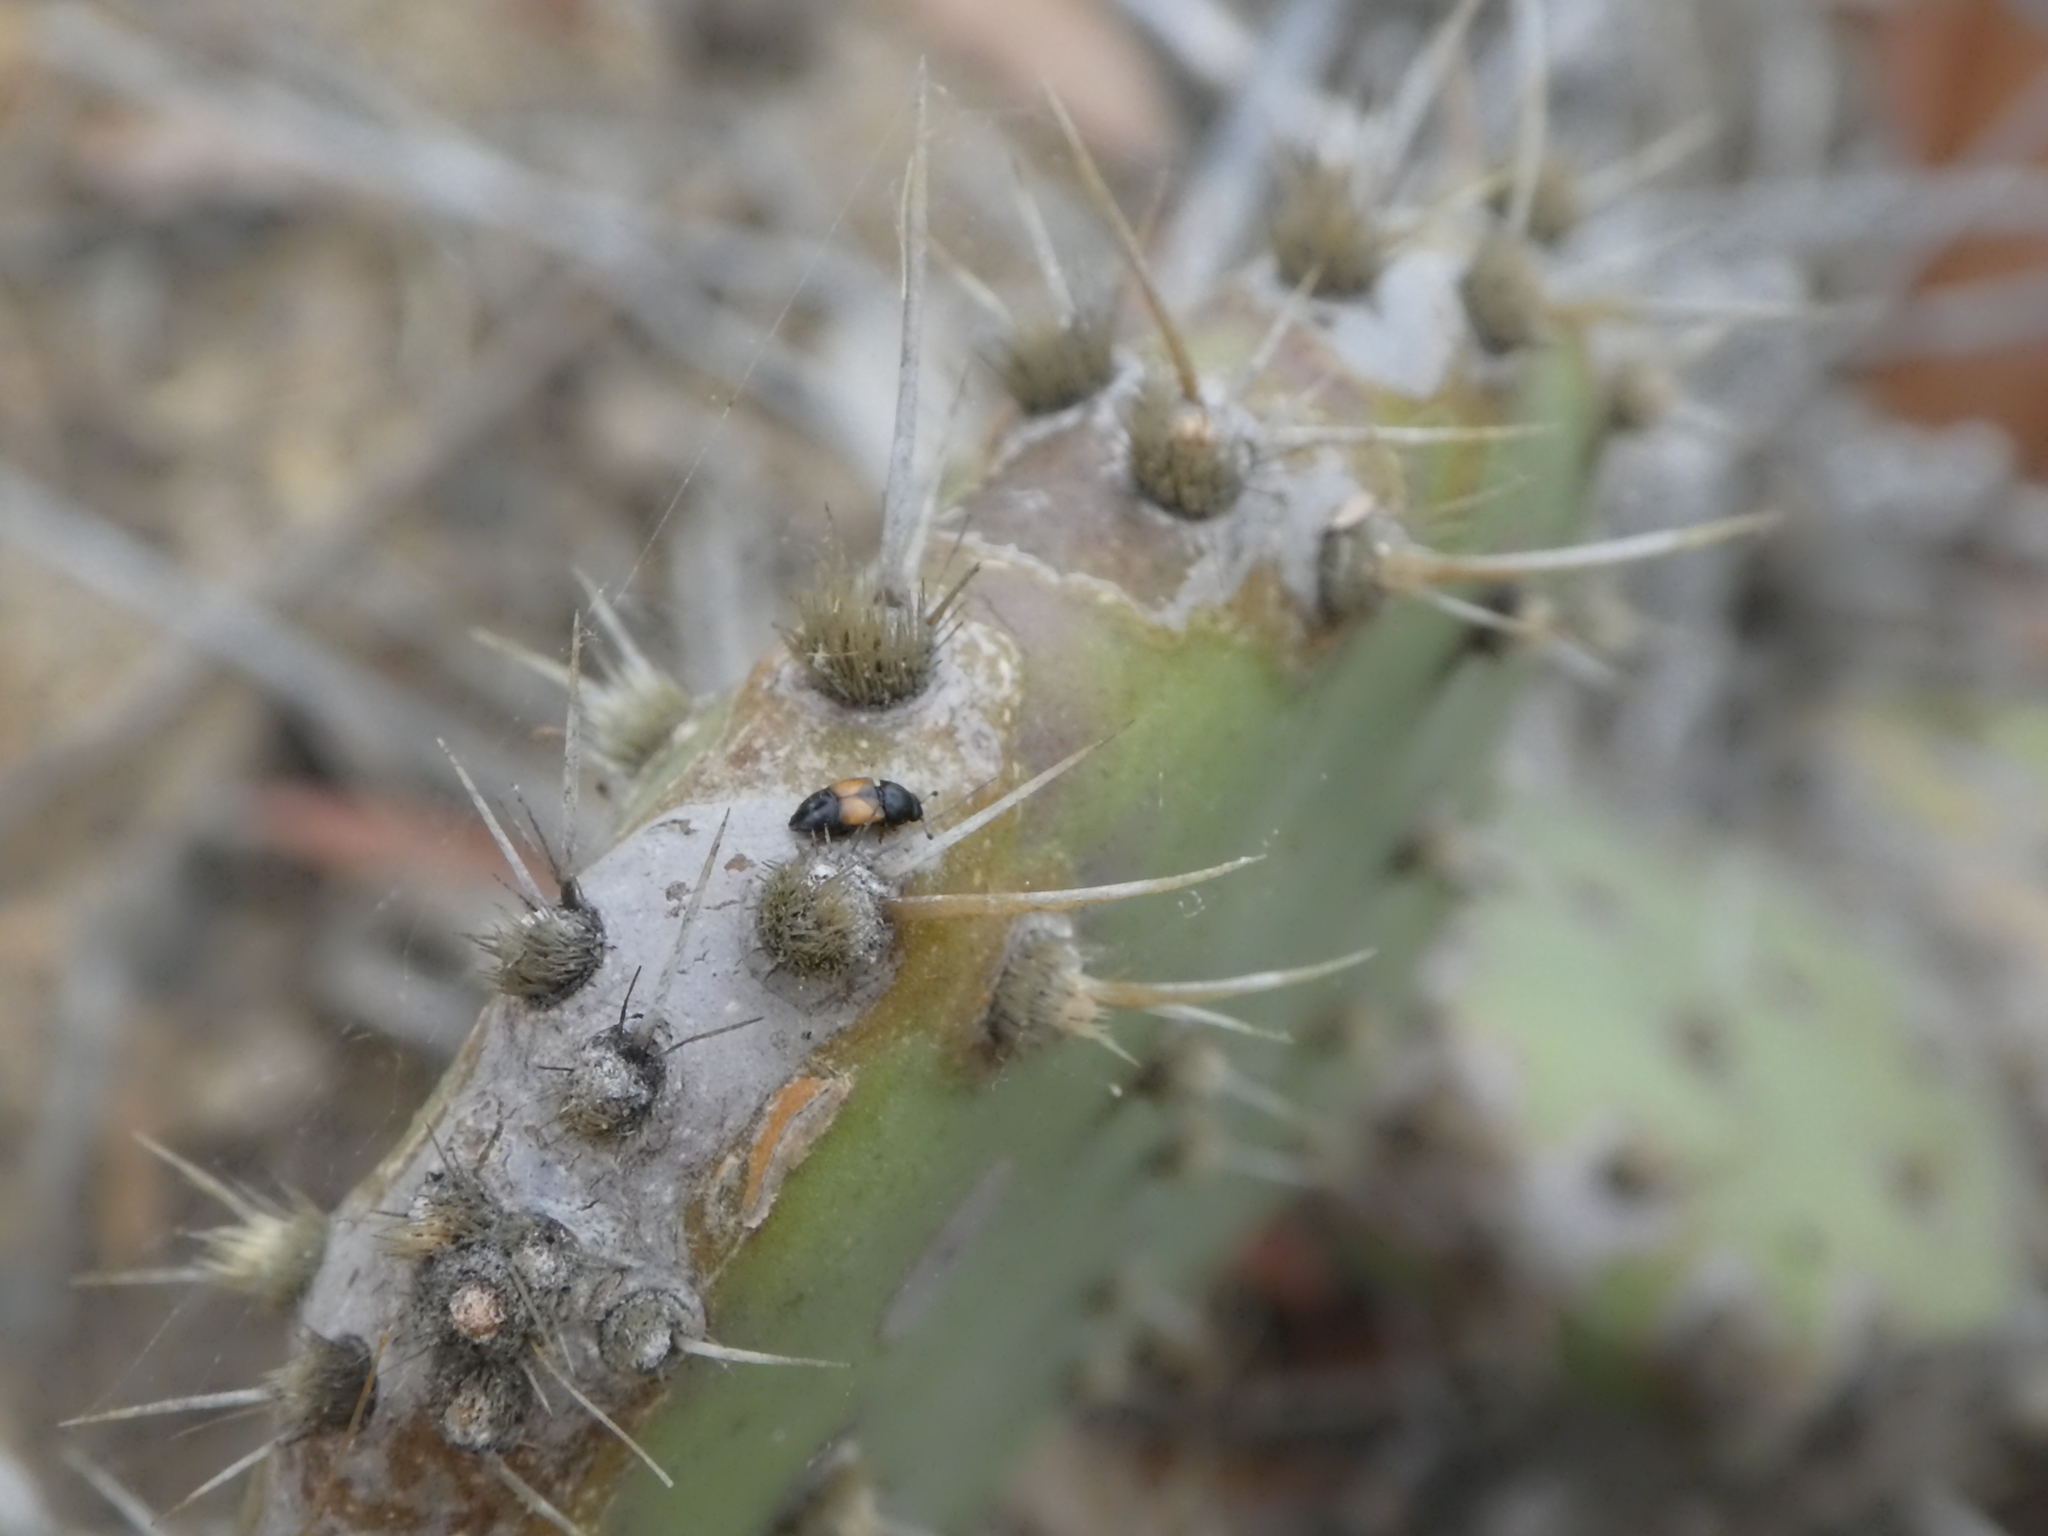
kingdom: Animalia
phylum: Arthropoda
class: Insecta
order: Coleoptera
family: Nitidulidae
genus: Nitops
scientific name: Nitops pallipennis
